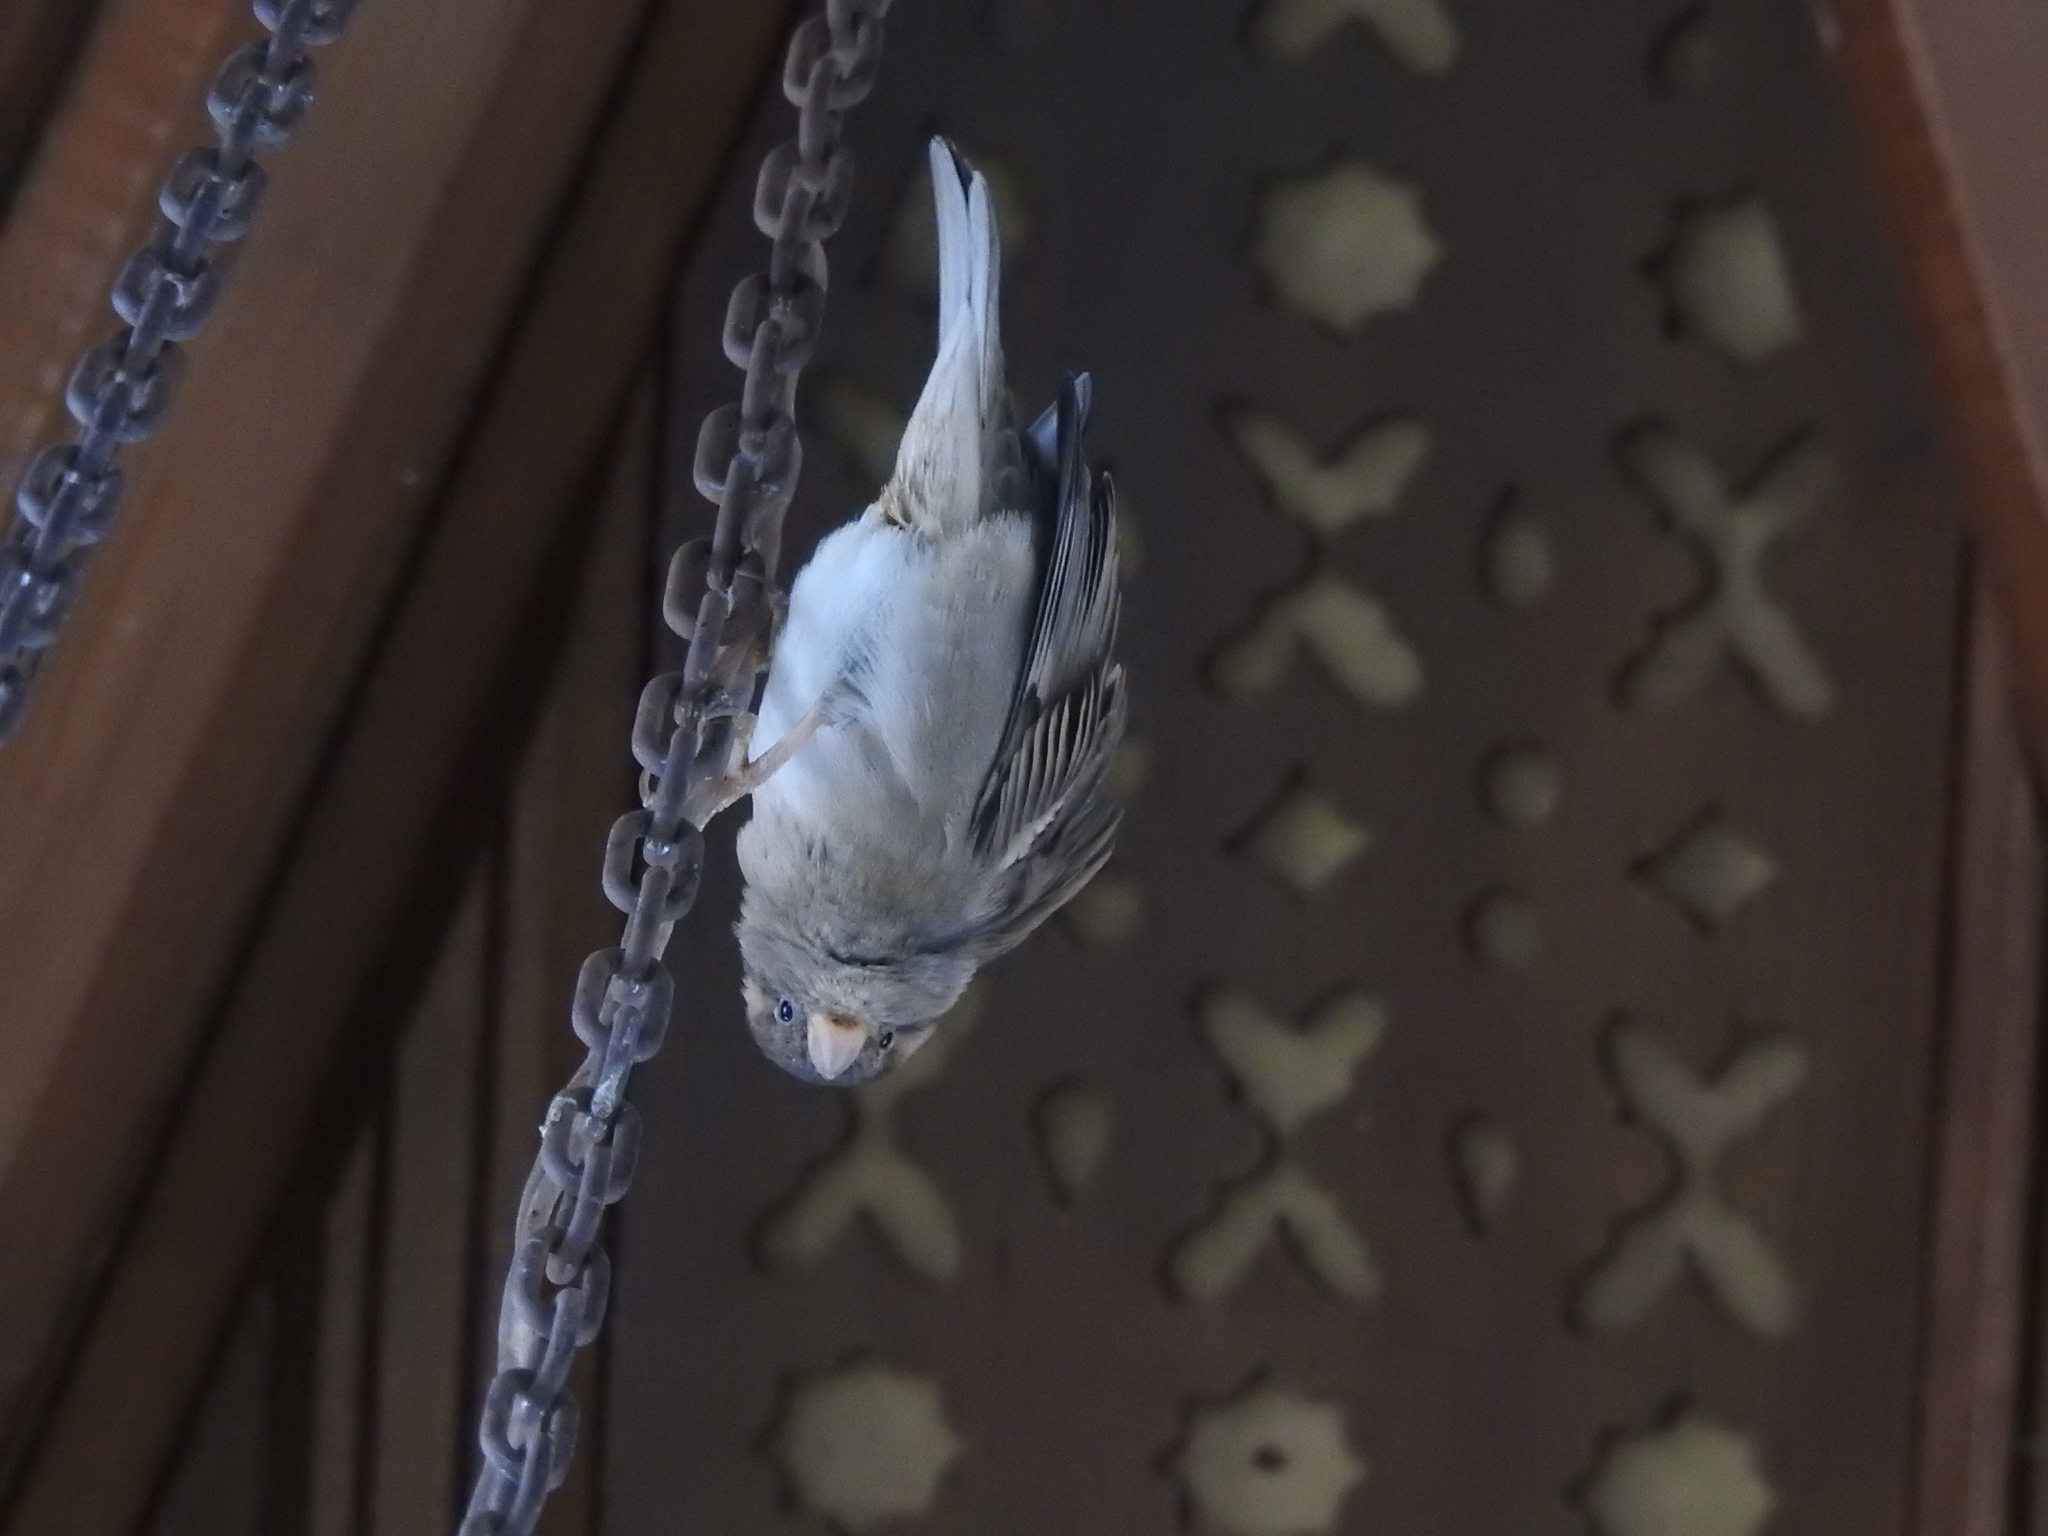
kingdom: Animalia
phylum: Chordata
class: Aves
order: Passeriformes
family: Passeridae
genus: Passer
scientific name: Passer domesticus
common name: House sparrow
